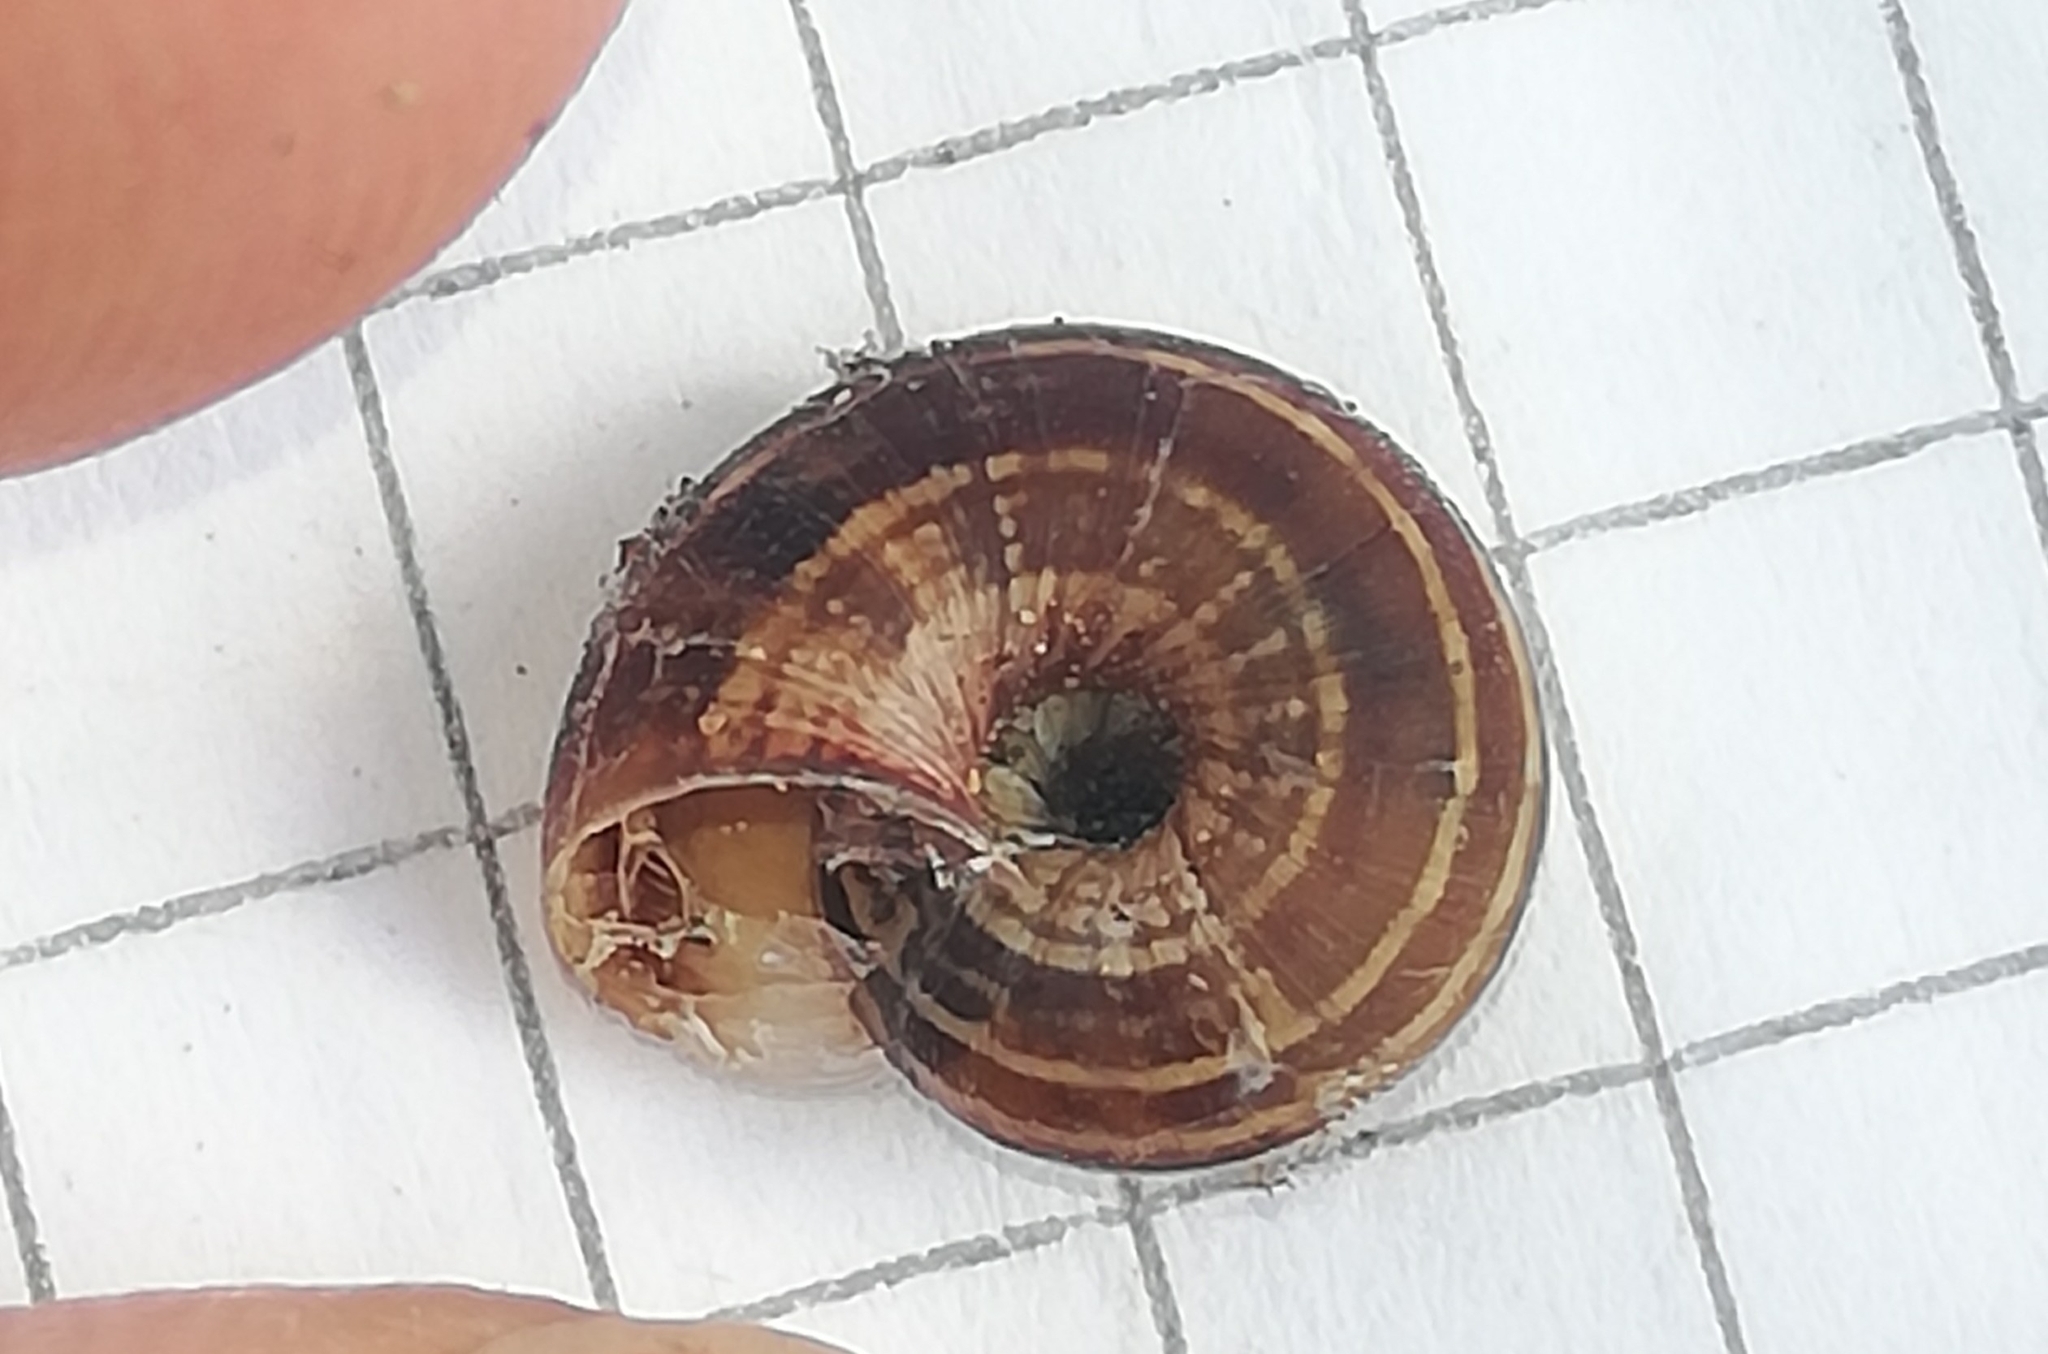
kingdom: Animalia
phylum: Mollusca
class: Gastropoda
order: Stylommatophora
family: Geomitridae
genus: Cernuella
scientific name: Cernuella neglecta
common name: Neglected dune snail
